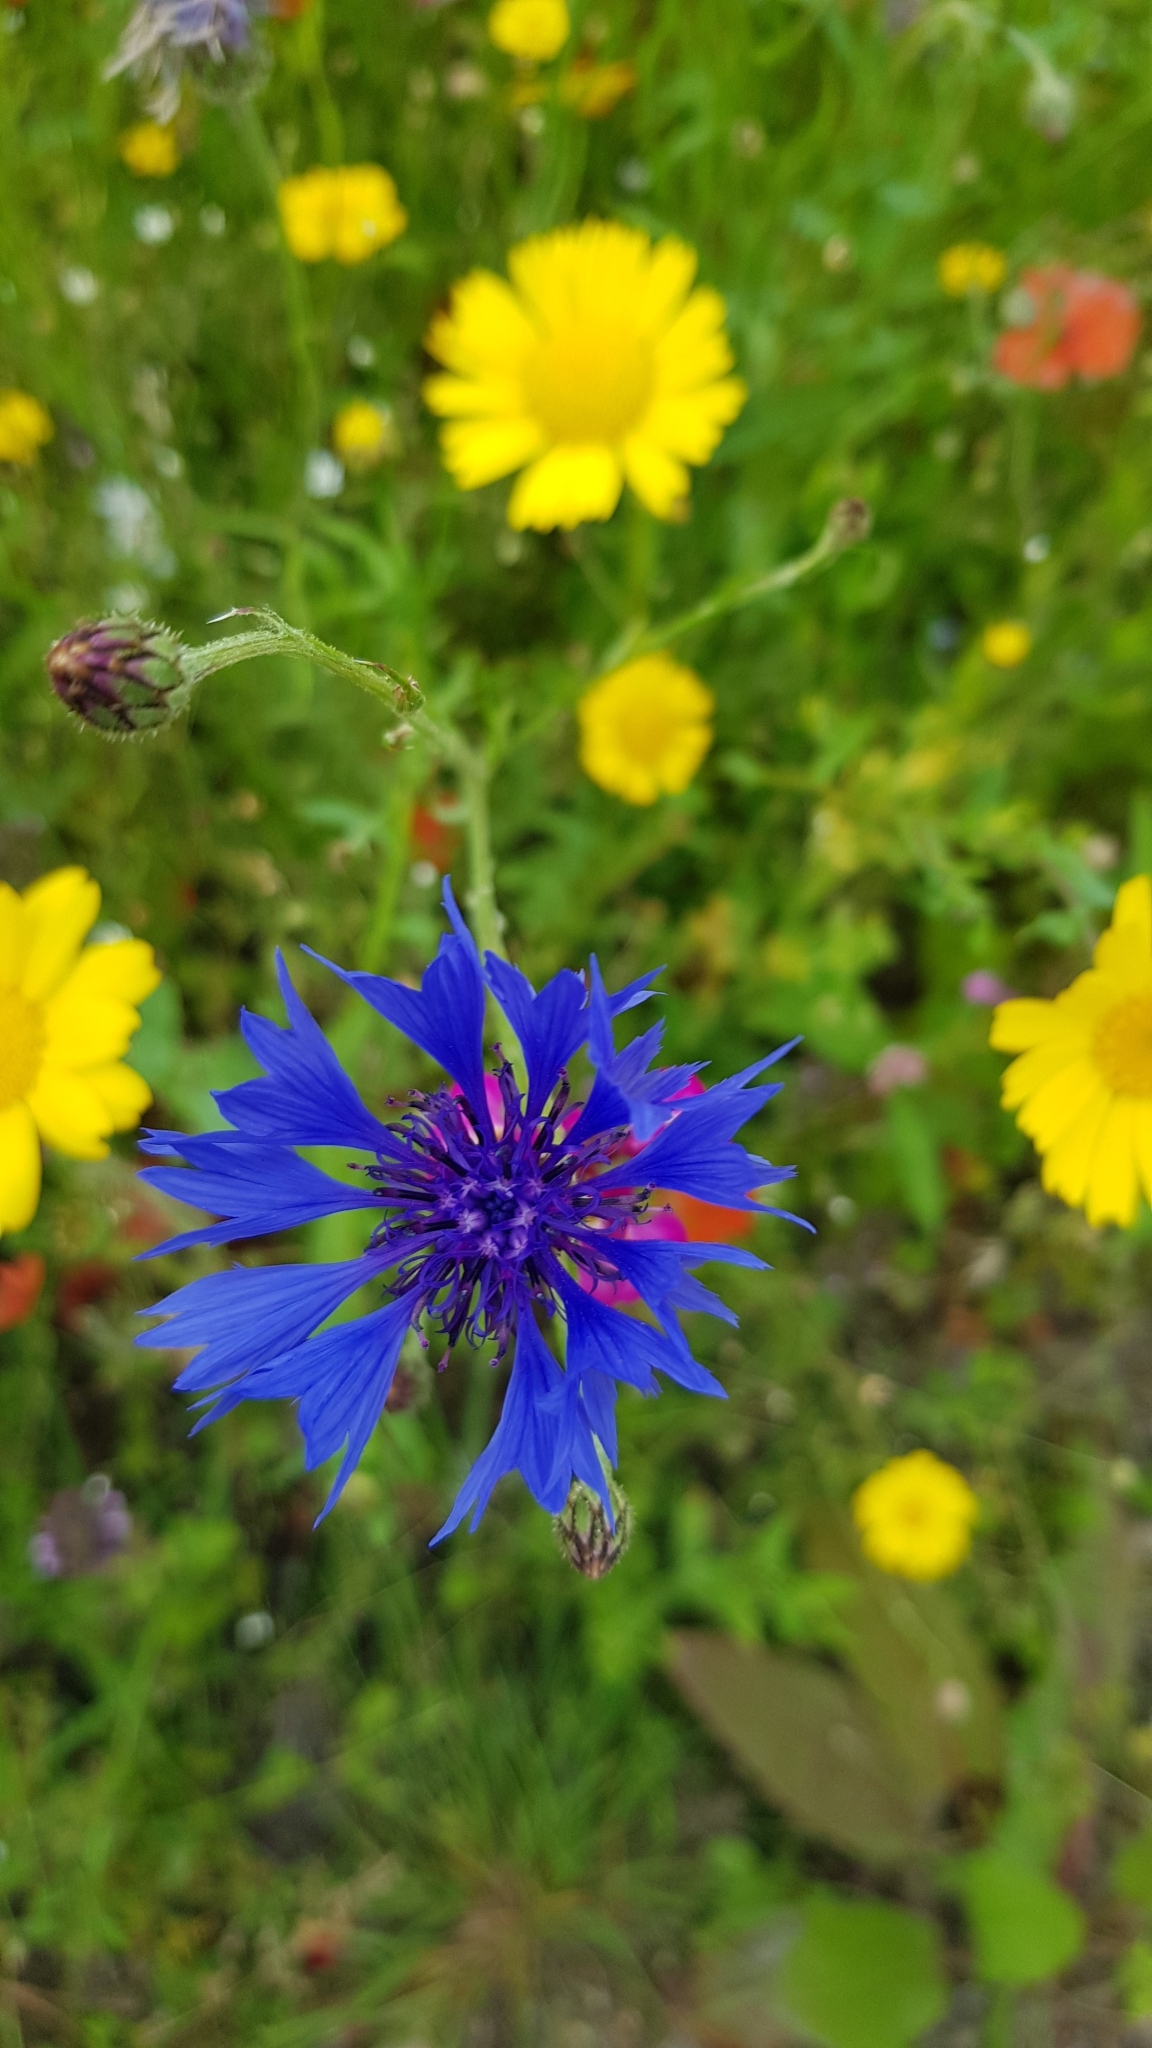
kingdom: Plantae
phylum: Tracheophyta
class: Magnoliopsida
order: Asterales
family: Asteraceae
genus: Centaurea
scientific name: Centaurea cyanus
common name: Cornflower
